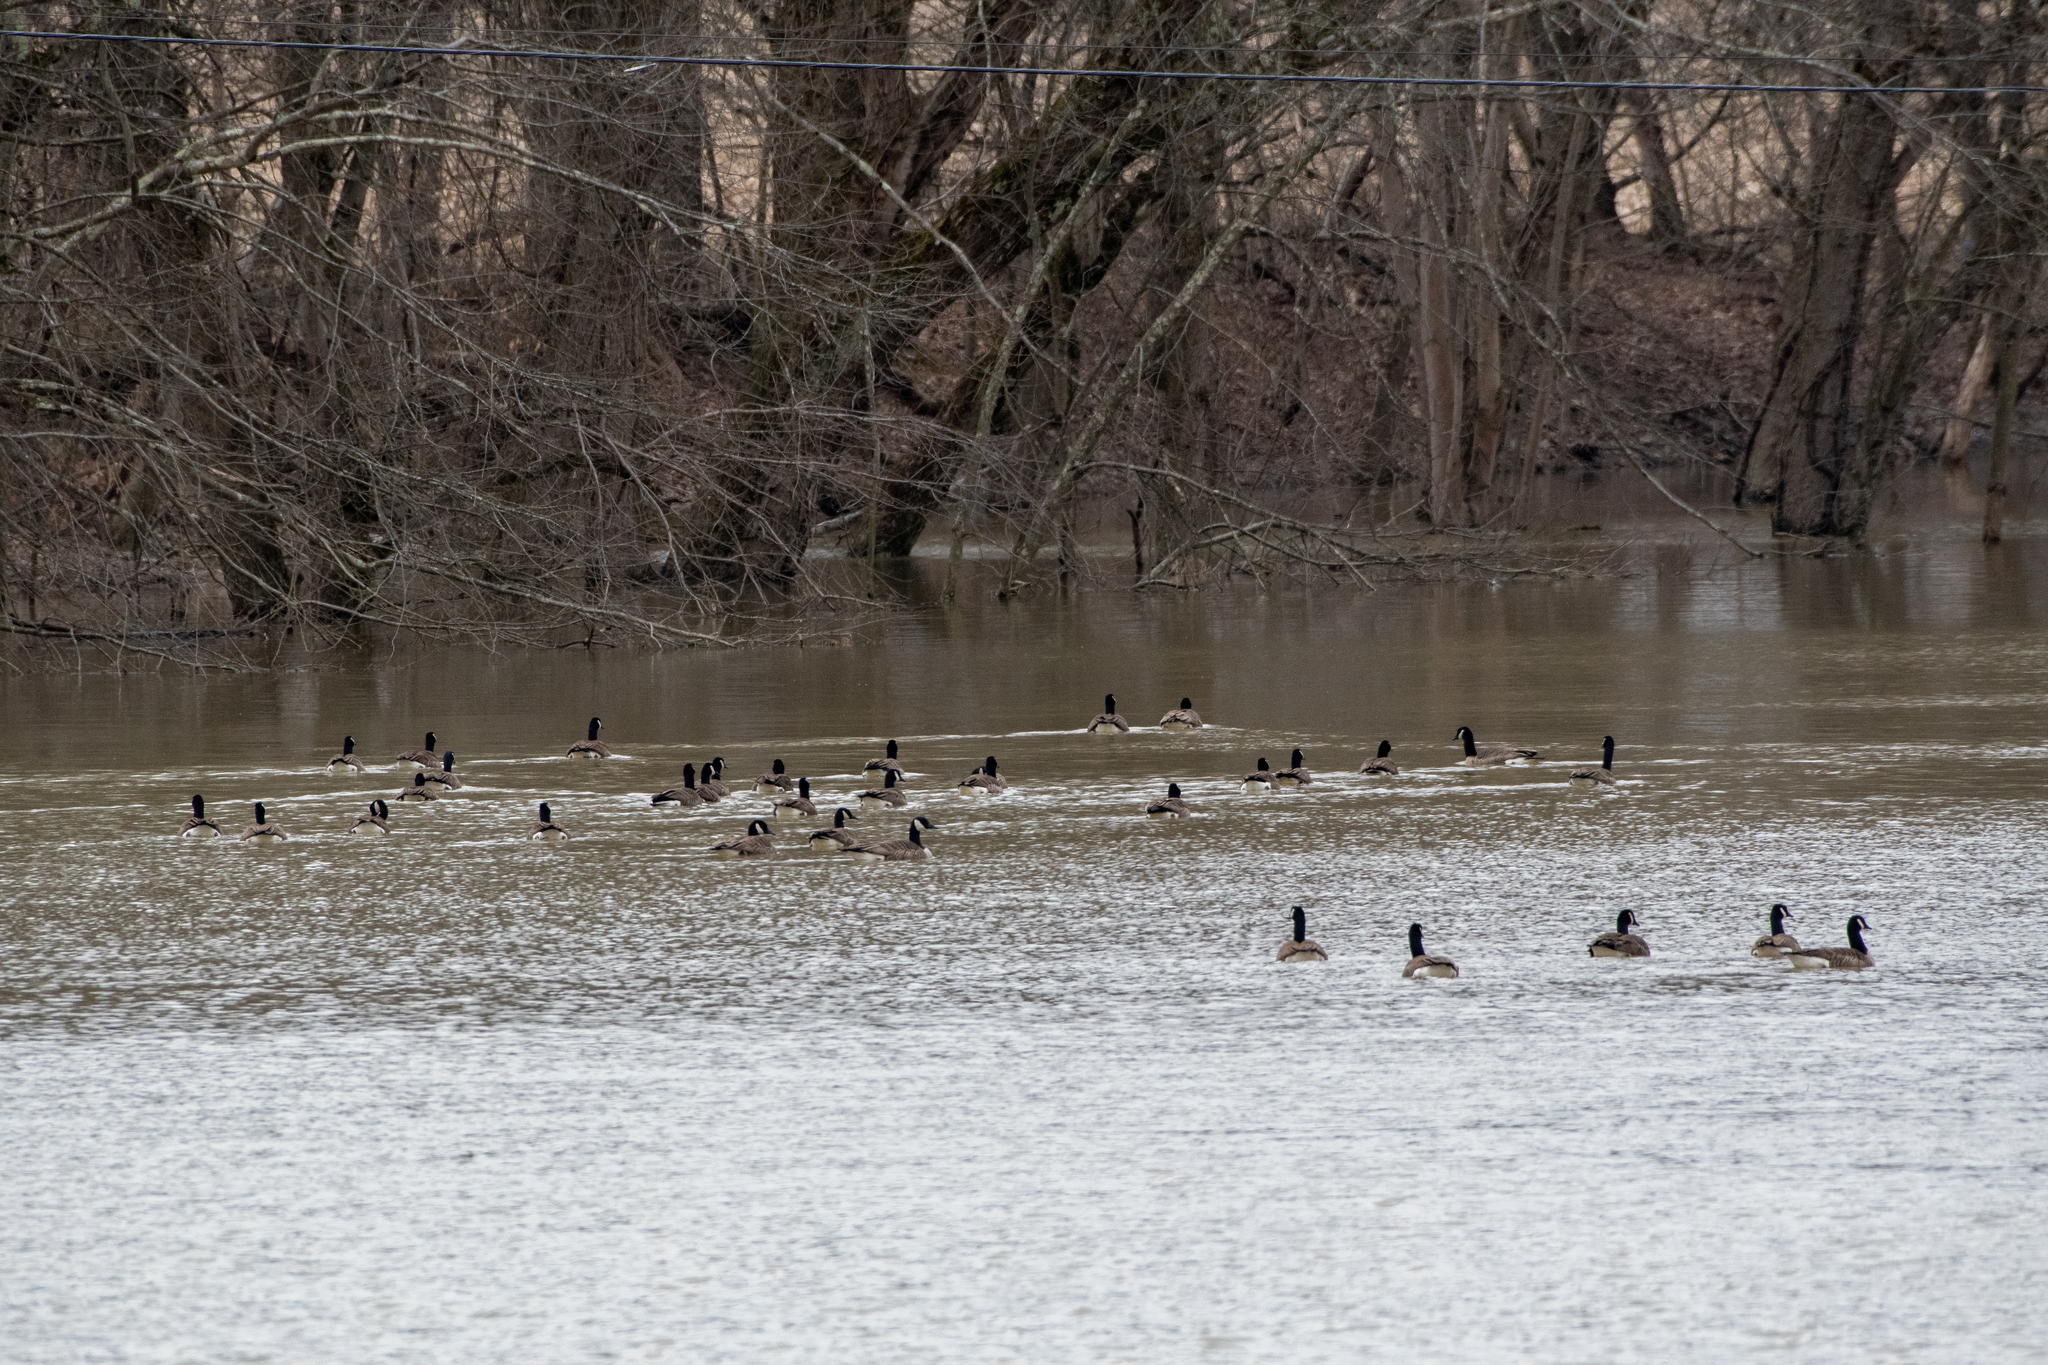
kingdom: Animalia
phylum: Chordata
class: Aves
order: Anseriformes
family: Anatidae
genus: Branta
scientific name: Branta canadensis
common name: Canada goose
